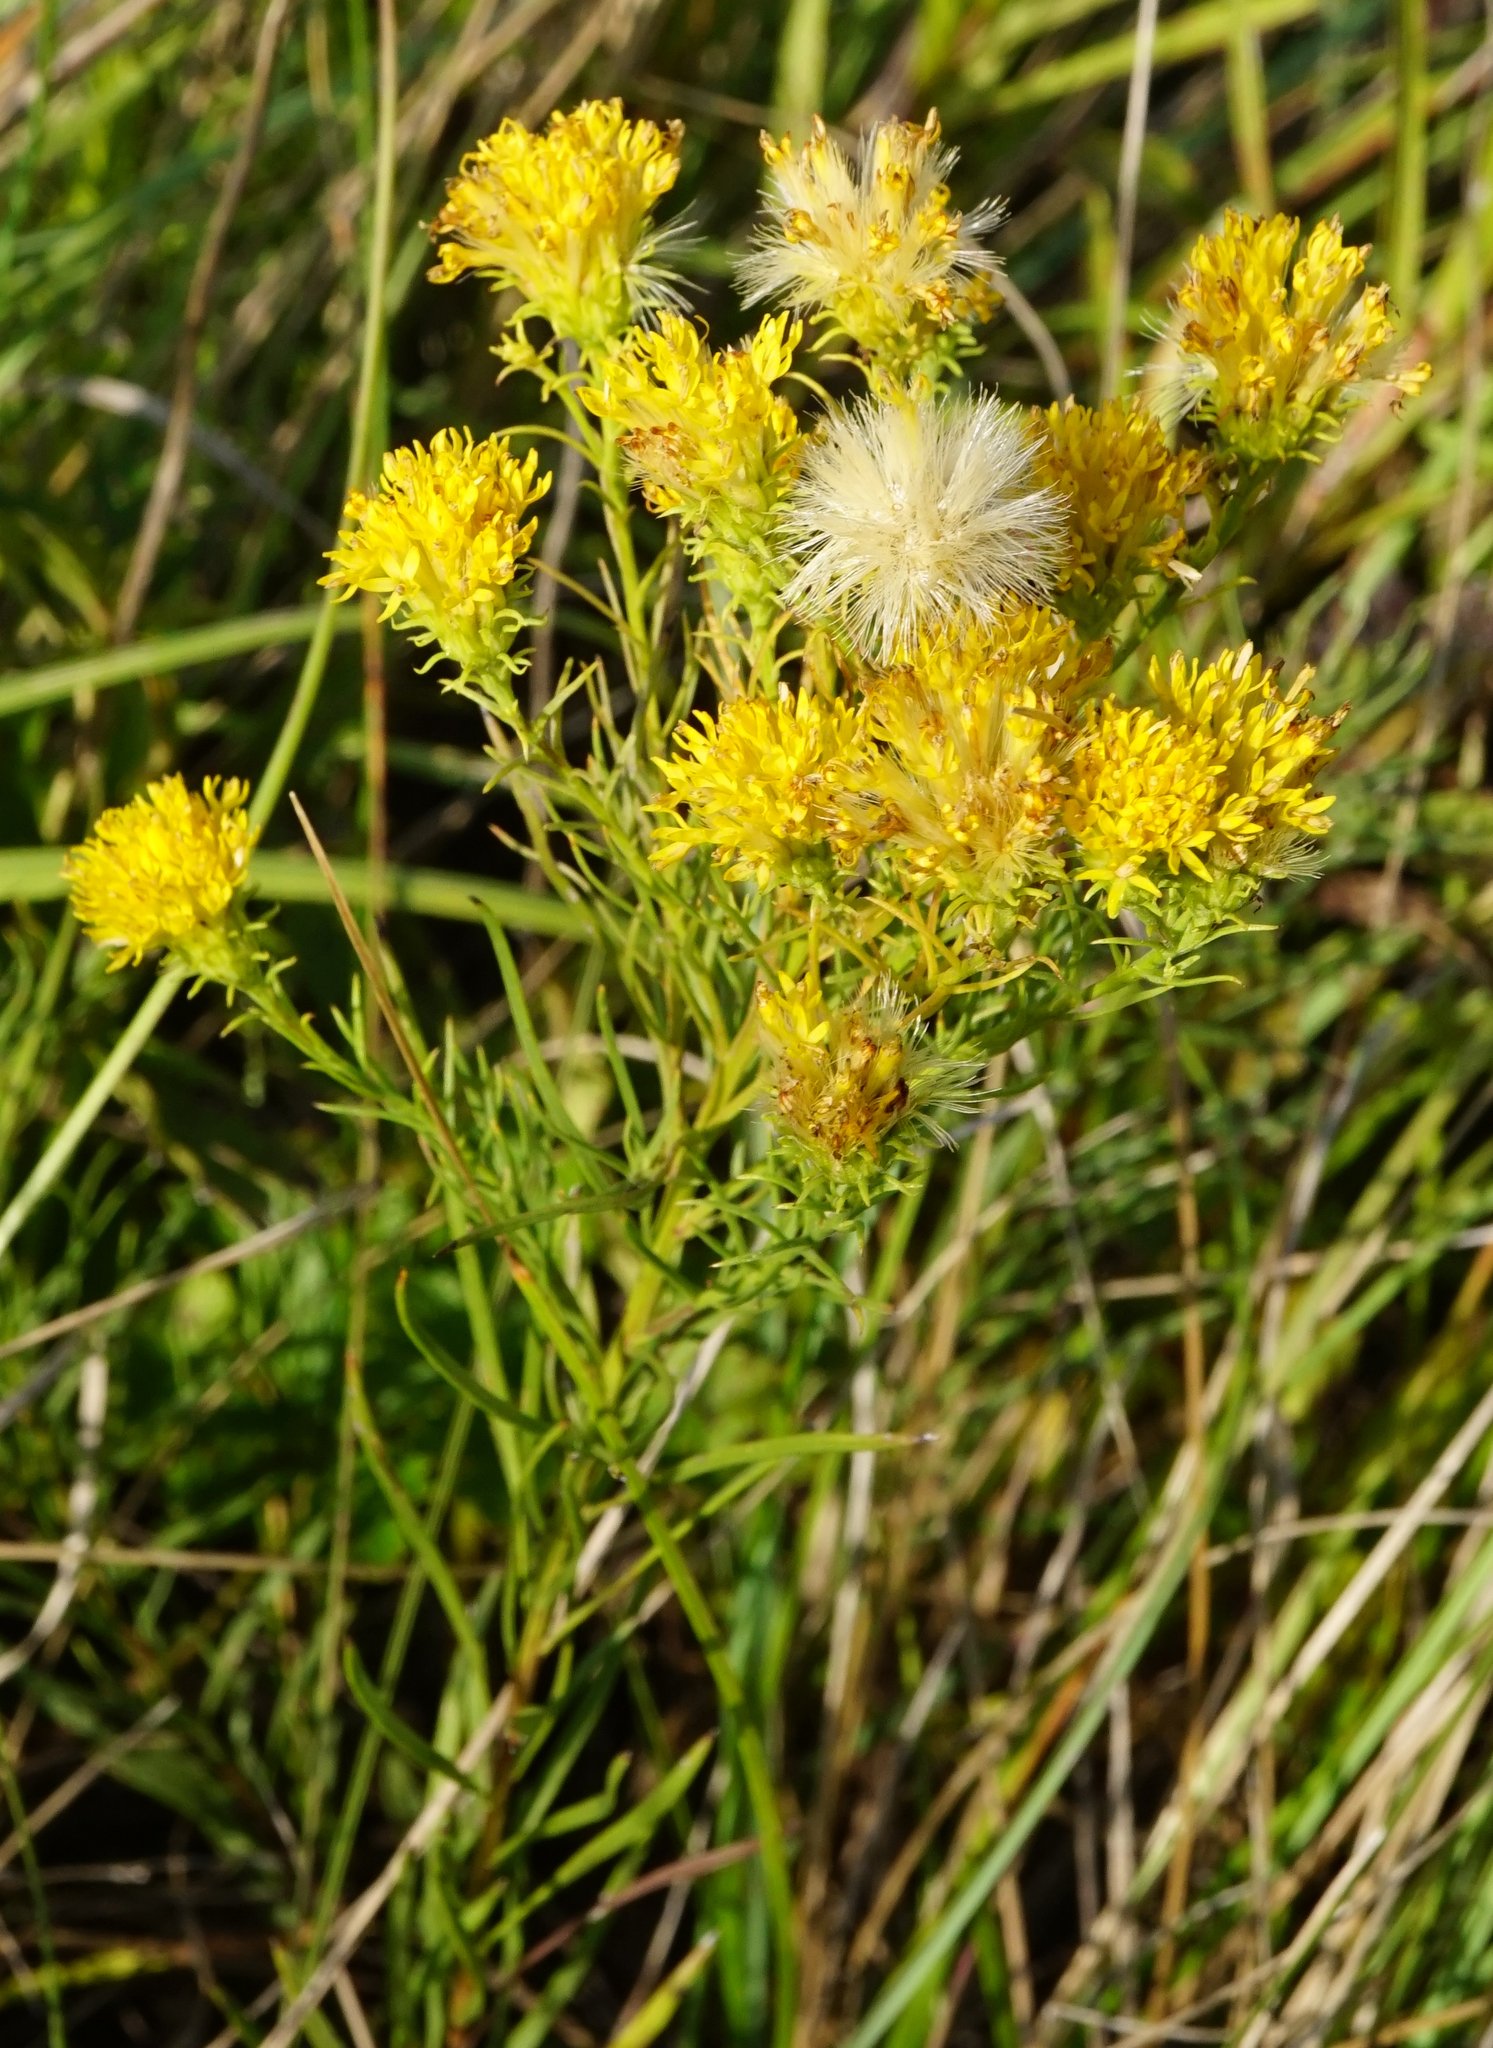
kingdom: Plantae
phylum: Tracheophyta
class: Magnoliopsida
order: Asterales
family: Asteraceae
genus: Galatella
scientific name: Galatella linosyris
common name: Goldilocks aster
